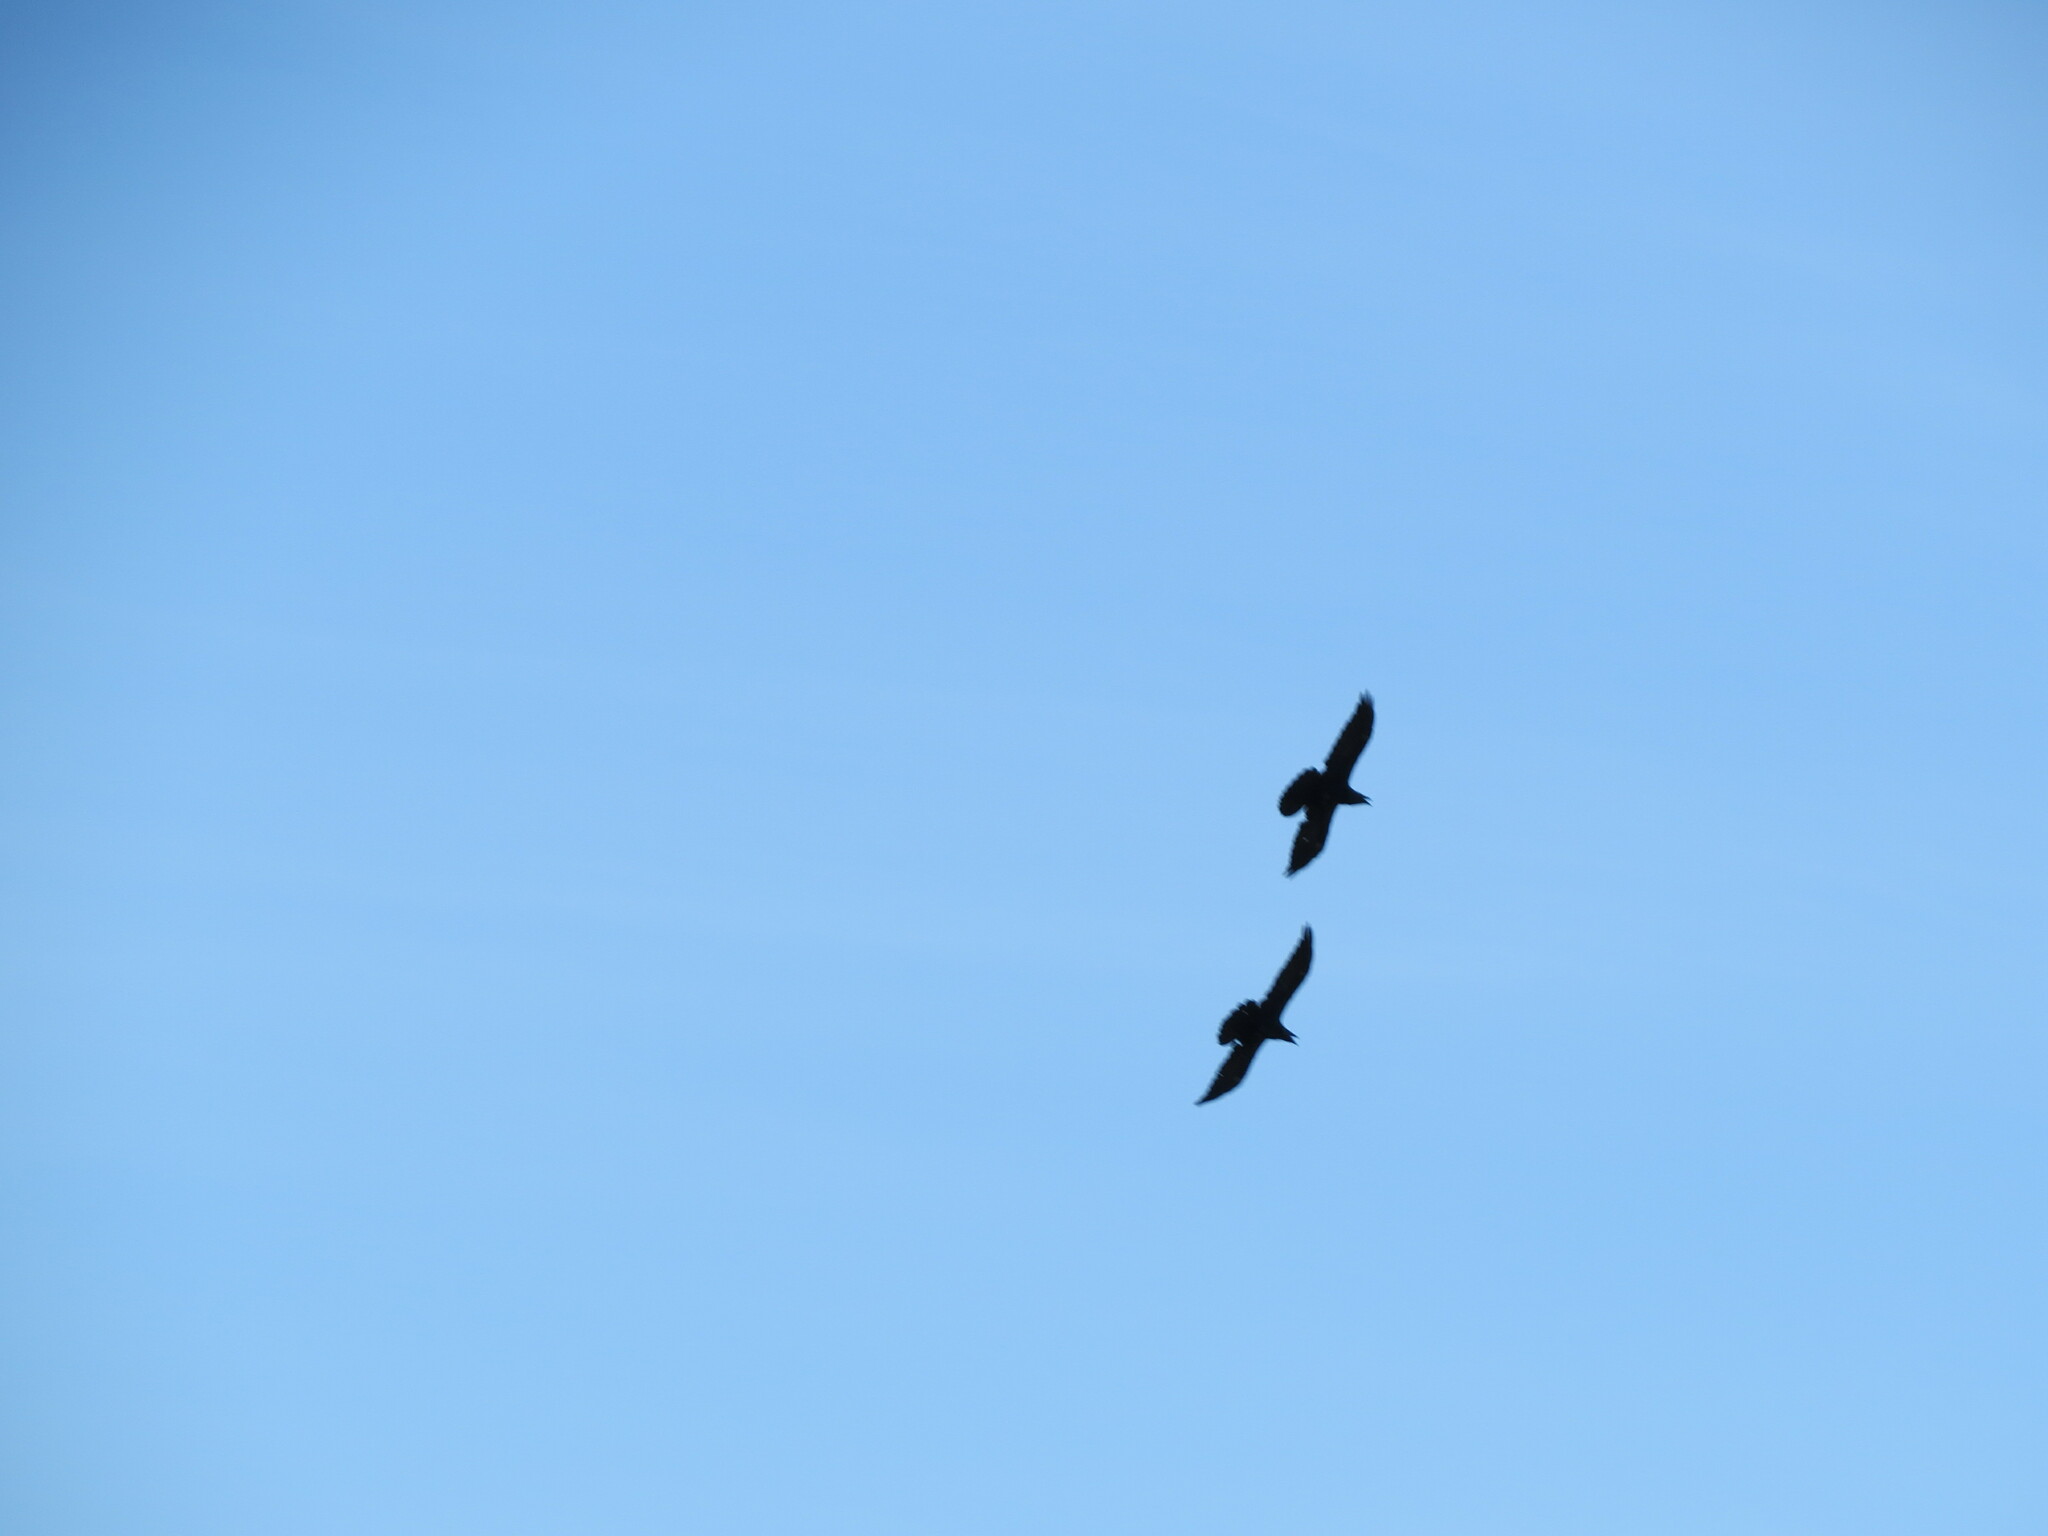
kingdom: Animalia
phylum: Chordata
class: Aves
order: Passeriformes
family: Corvidae
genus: Corvus
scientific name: Corvus corax
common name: Common raven
